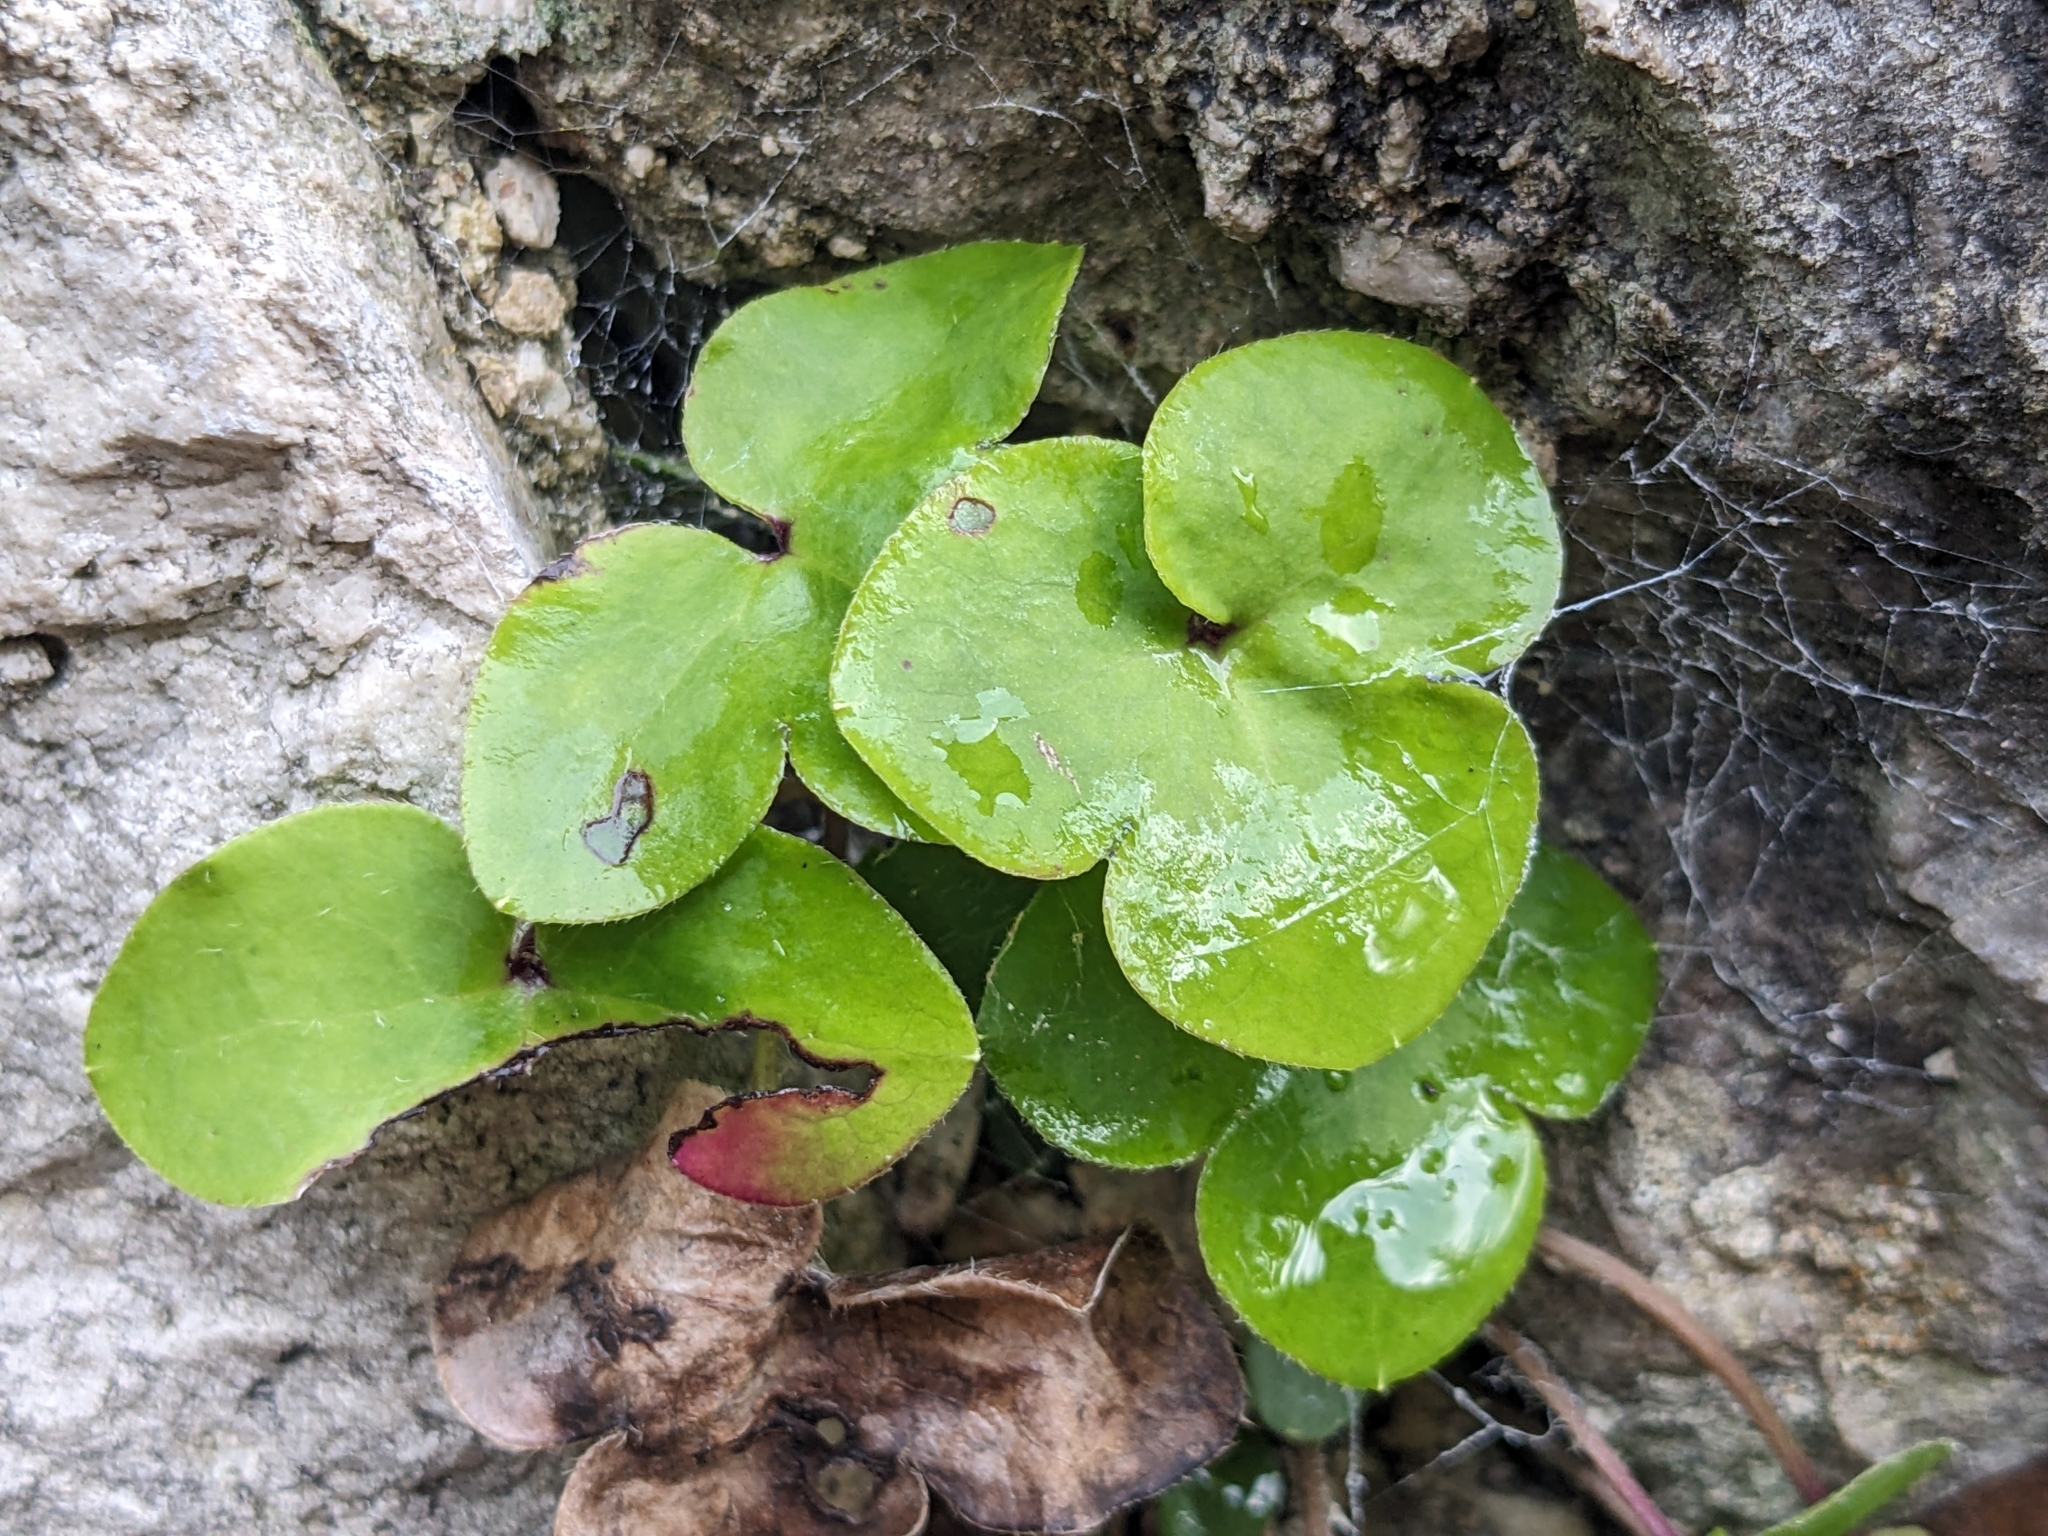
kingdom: Plantae
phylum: Tracheophyta
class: Magnoliopsida
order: Ranunculales
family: Ranunculaceae
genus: Hepatica
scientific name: Hepatica nobilis
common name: Liverleaf
